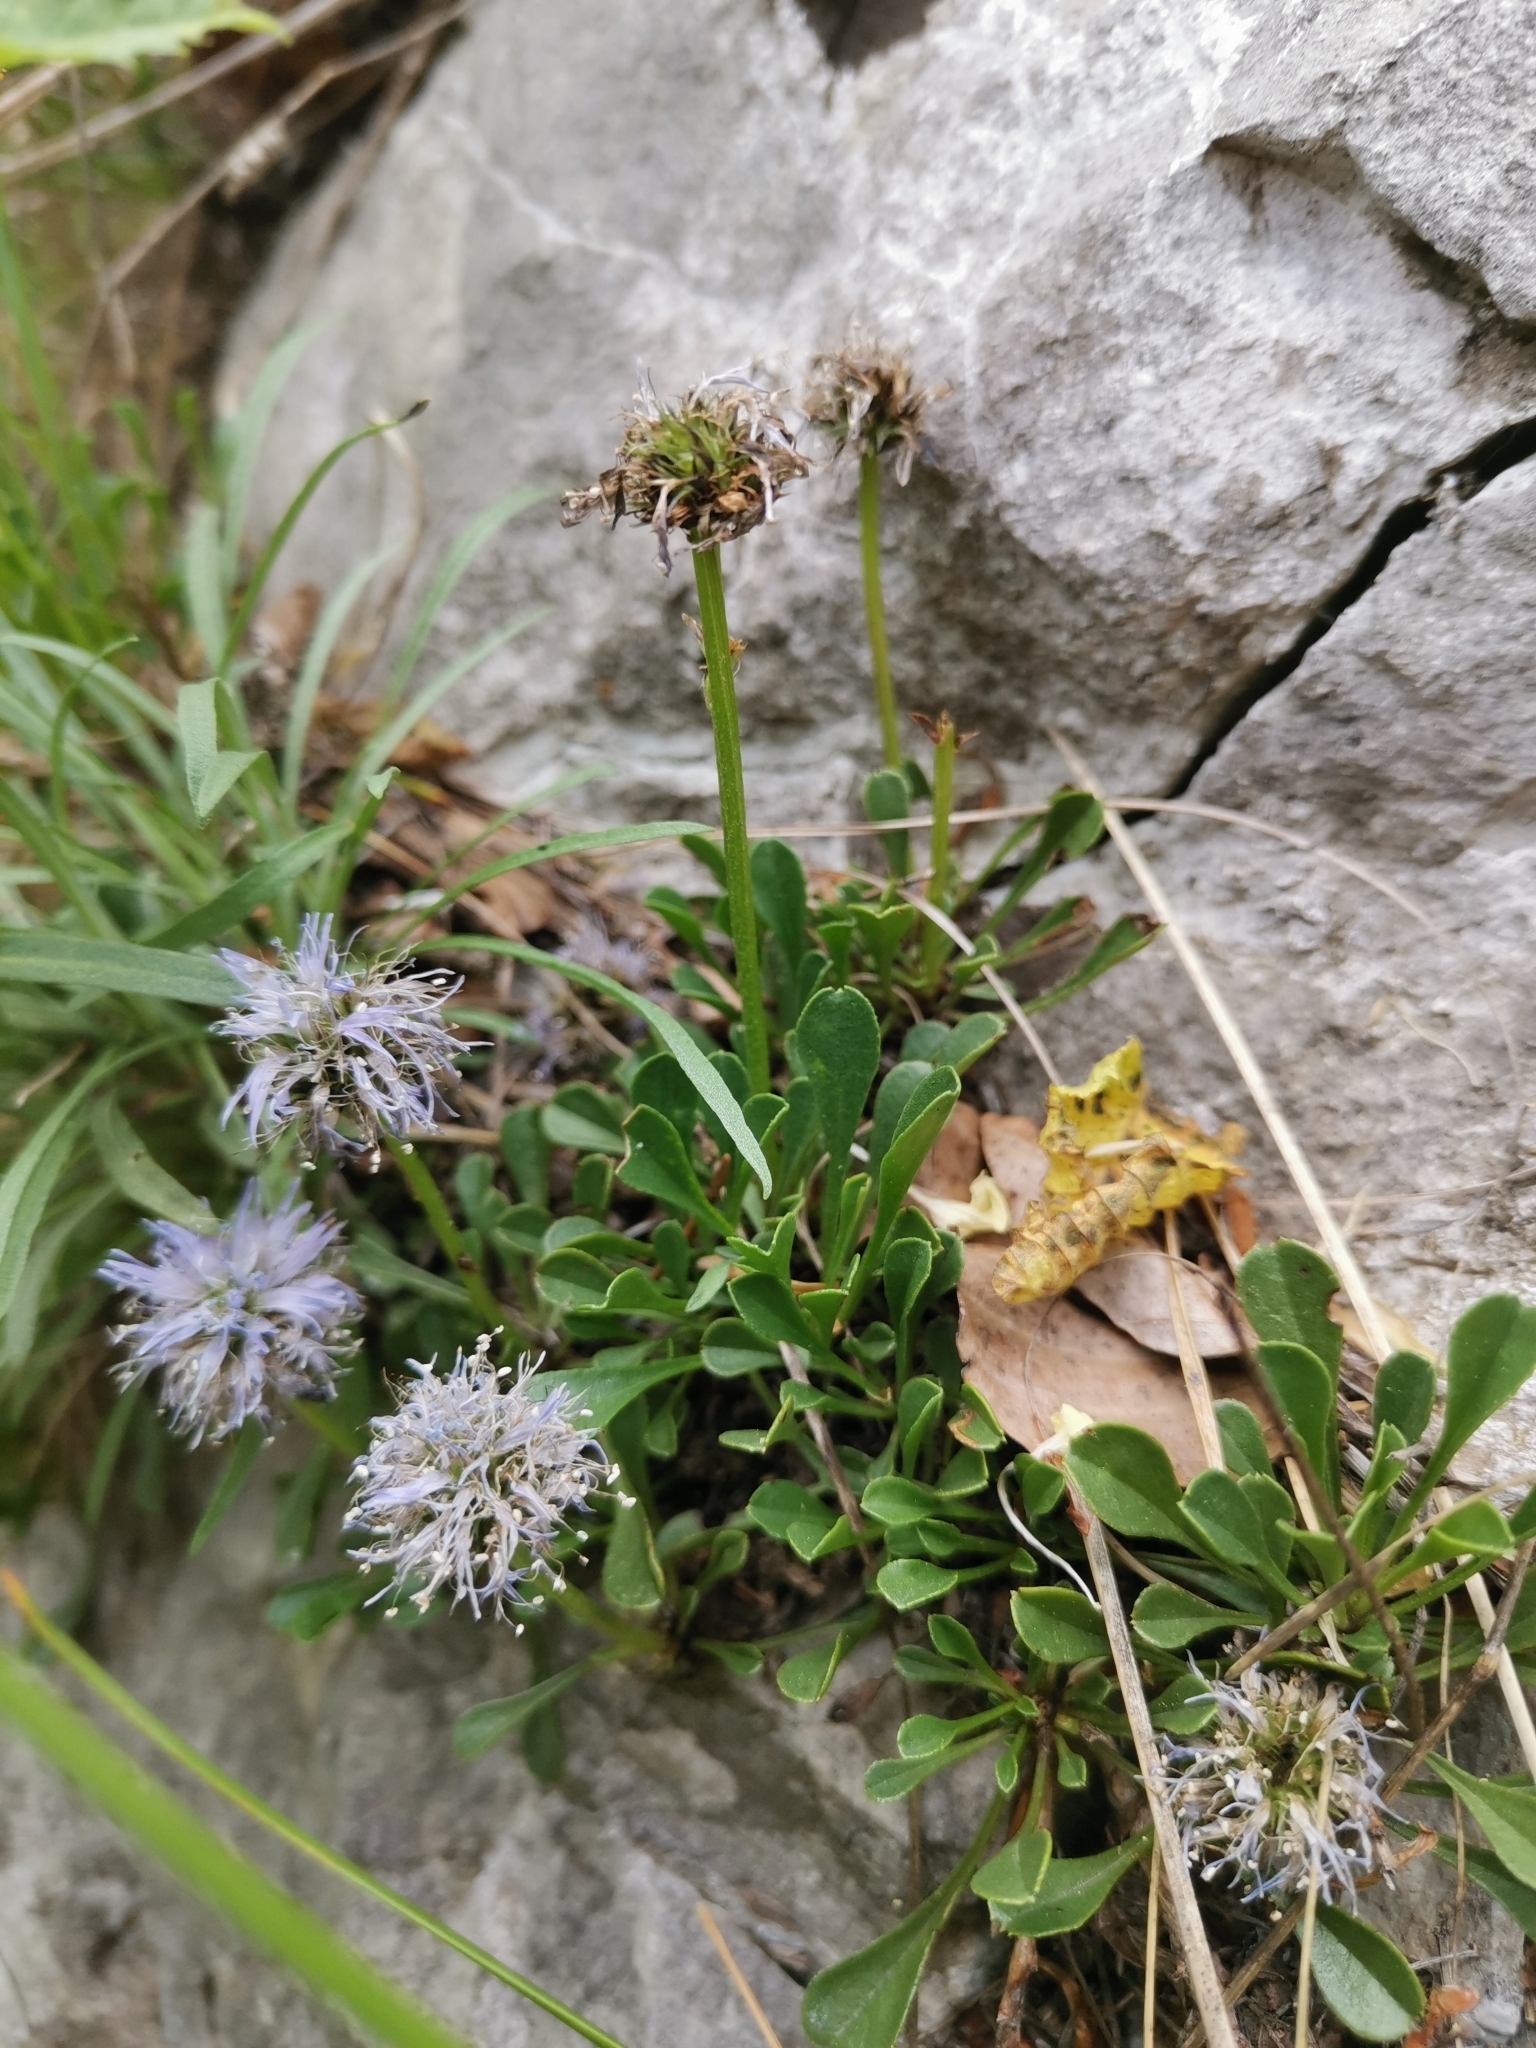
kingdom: Plantae
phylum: Tracheophyta
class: Magnoliopsida
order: Lamiales
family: Plantaginaceae
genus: Globularia
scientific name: Globularia cordifolia
